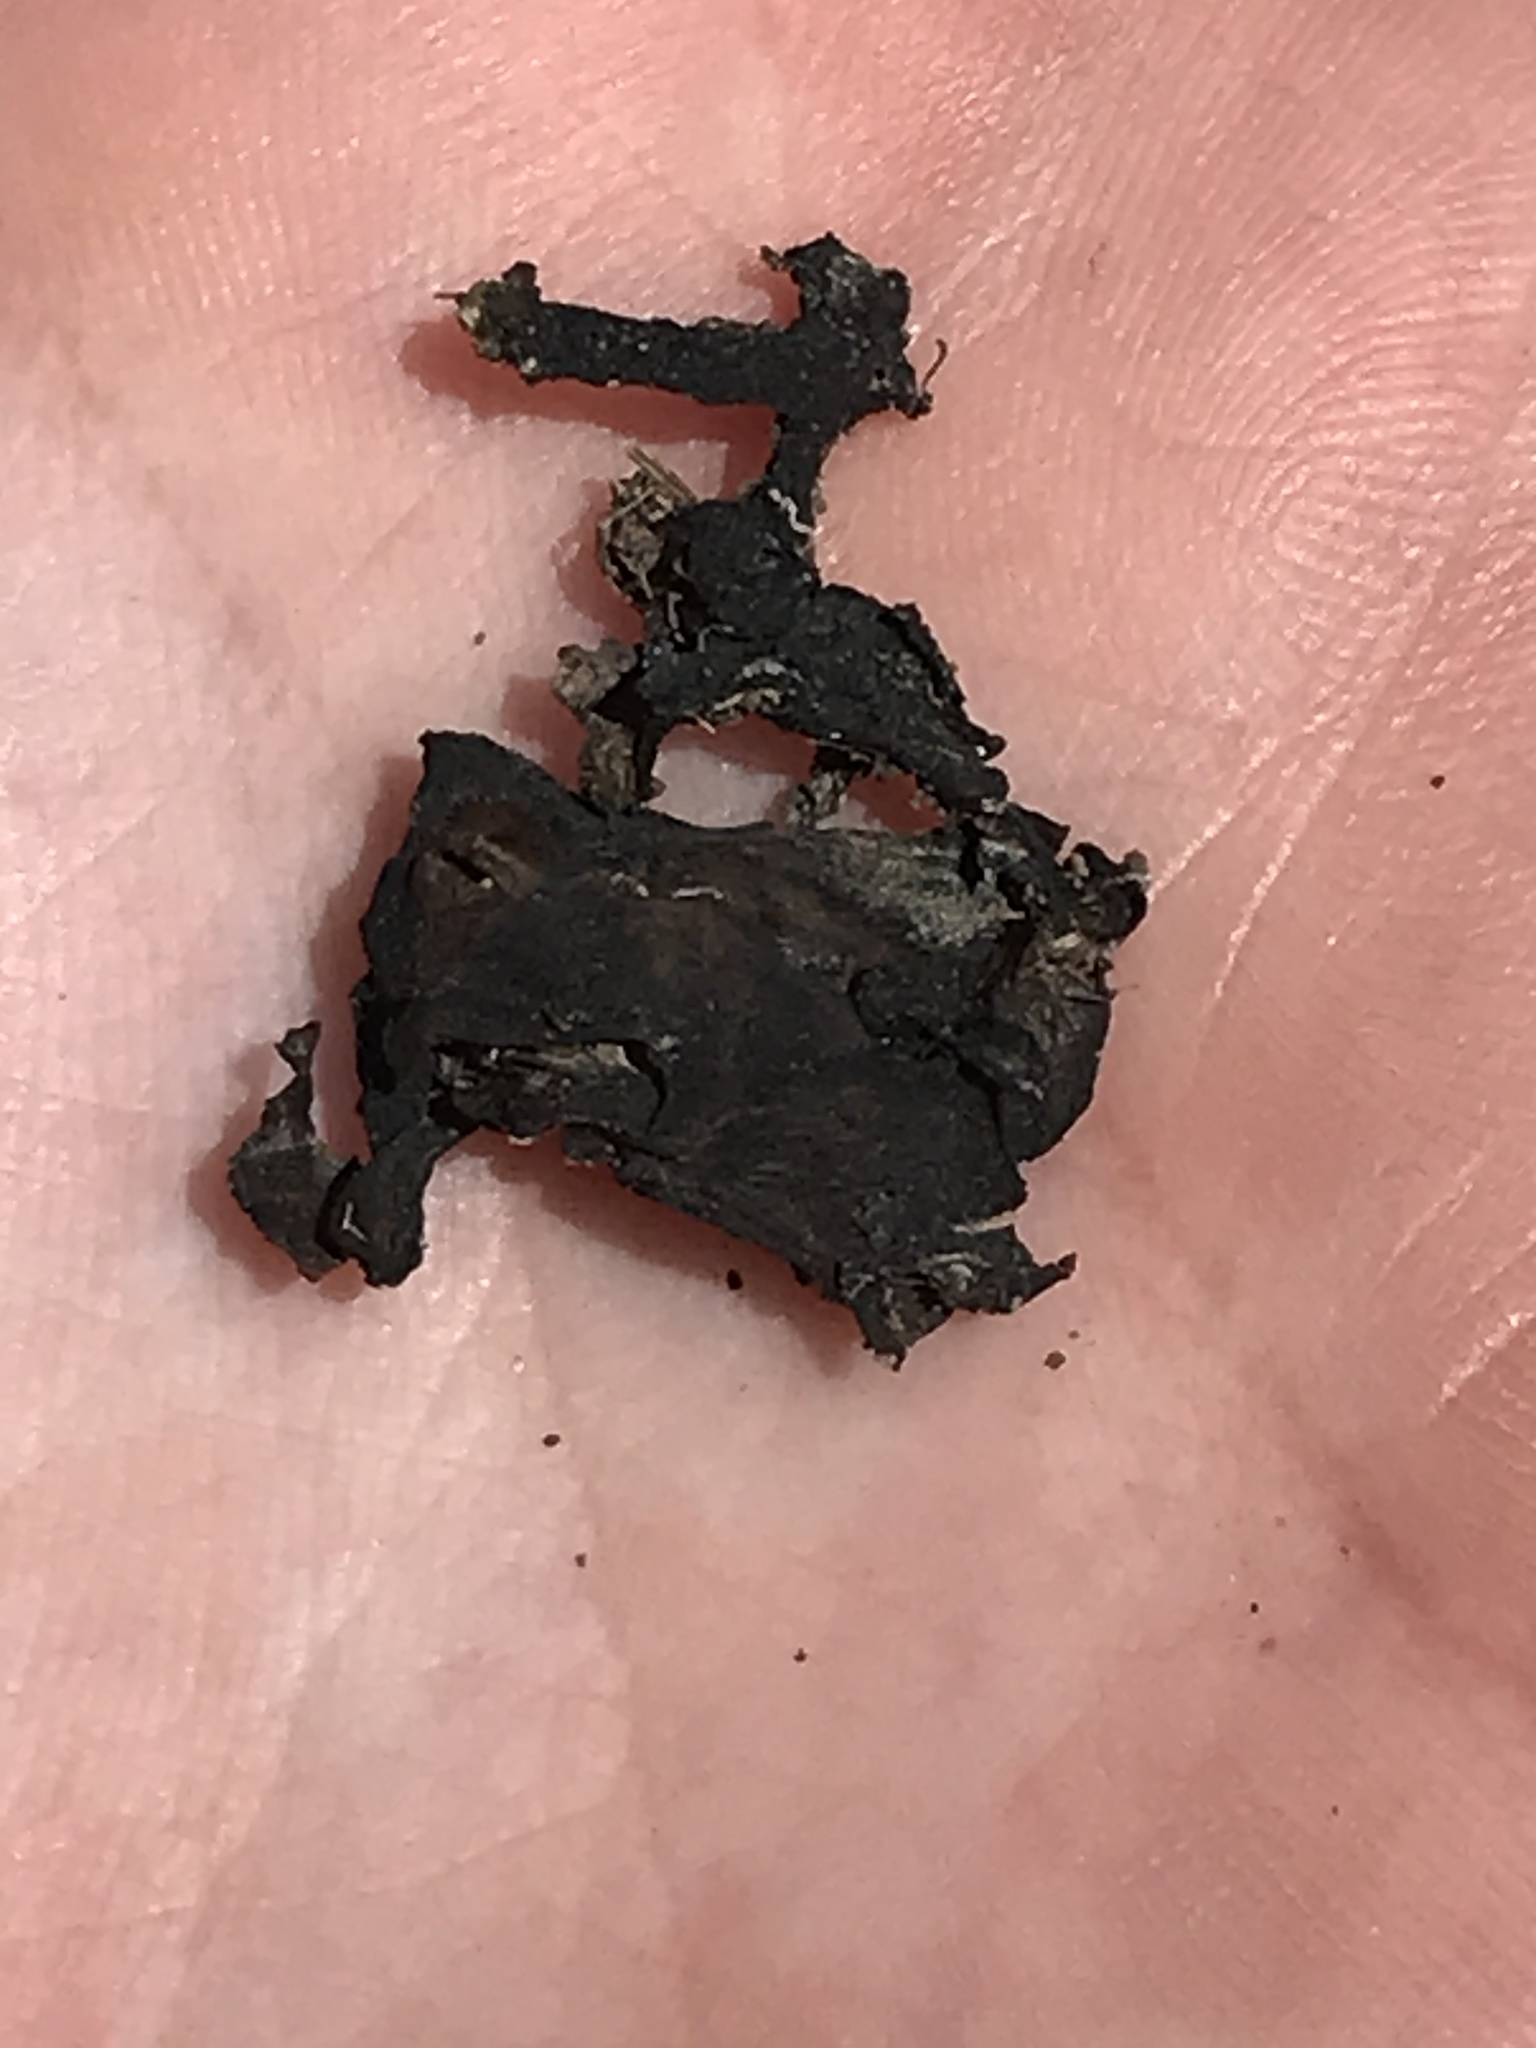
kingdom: Bacteria
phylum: Cyanobacteria
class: Cyanobacteriia
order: Cyanobacteriales
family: Nostocaceae
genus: Nostoc
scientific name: Nostoc commune
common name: Star jelly
